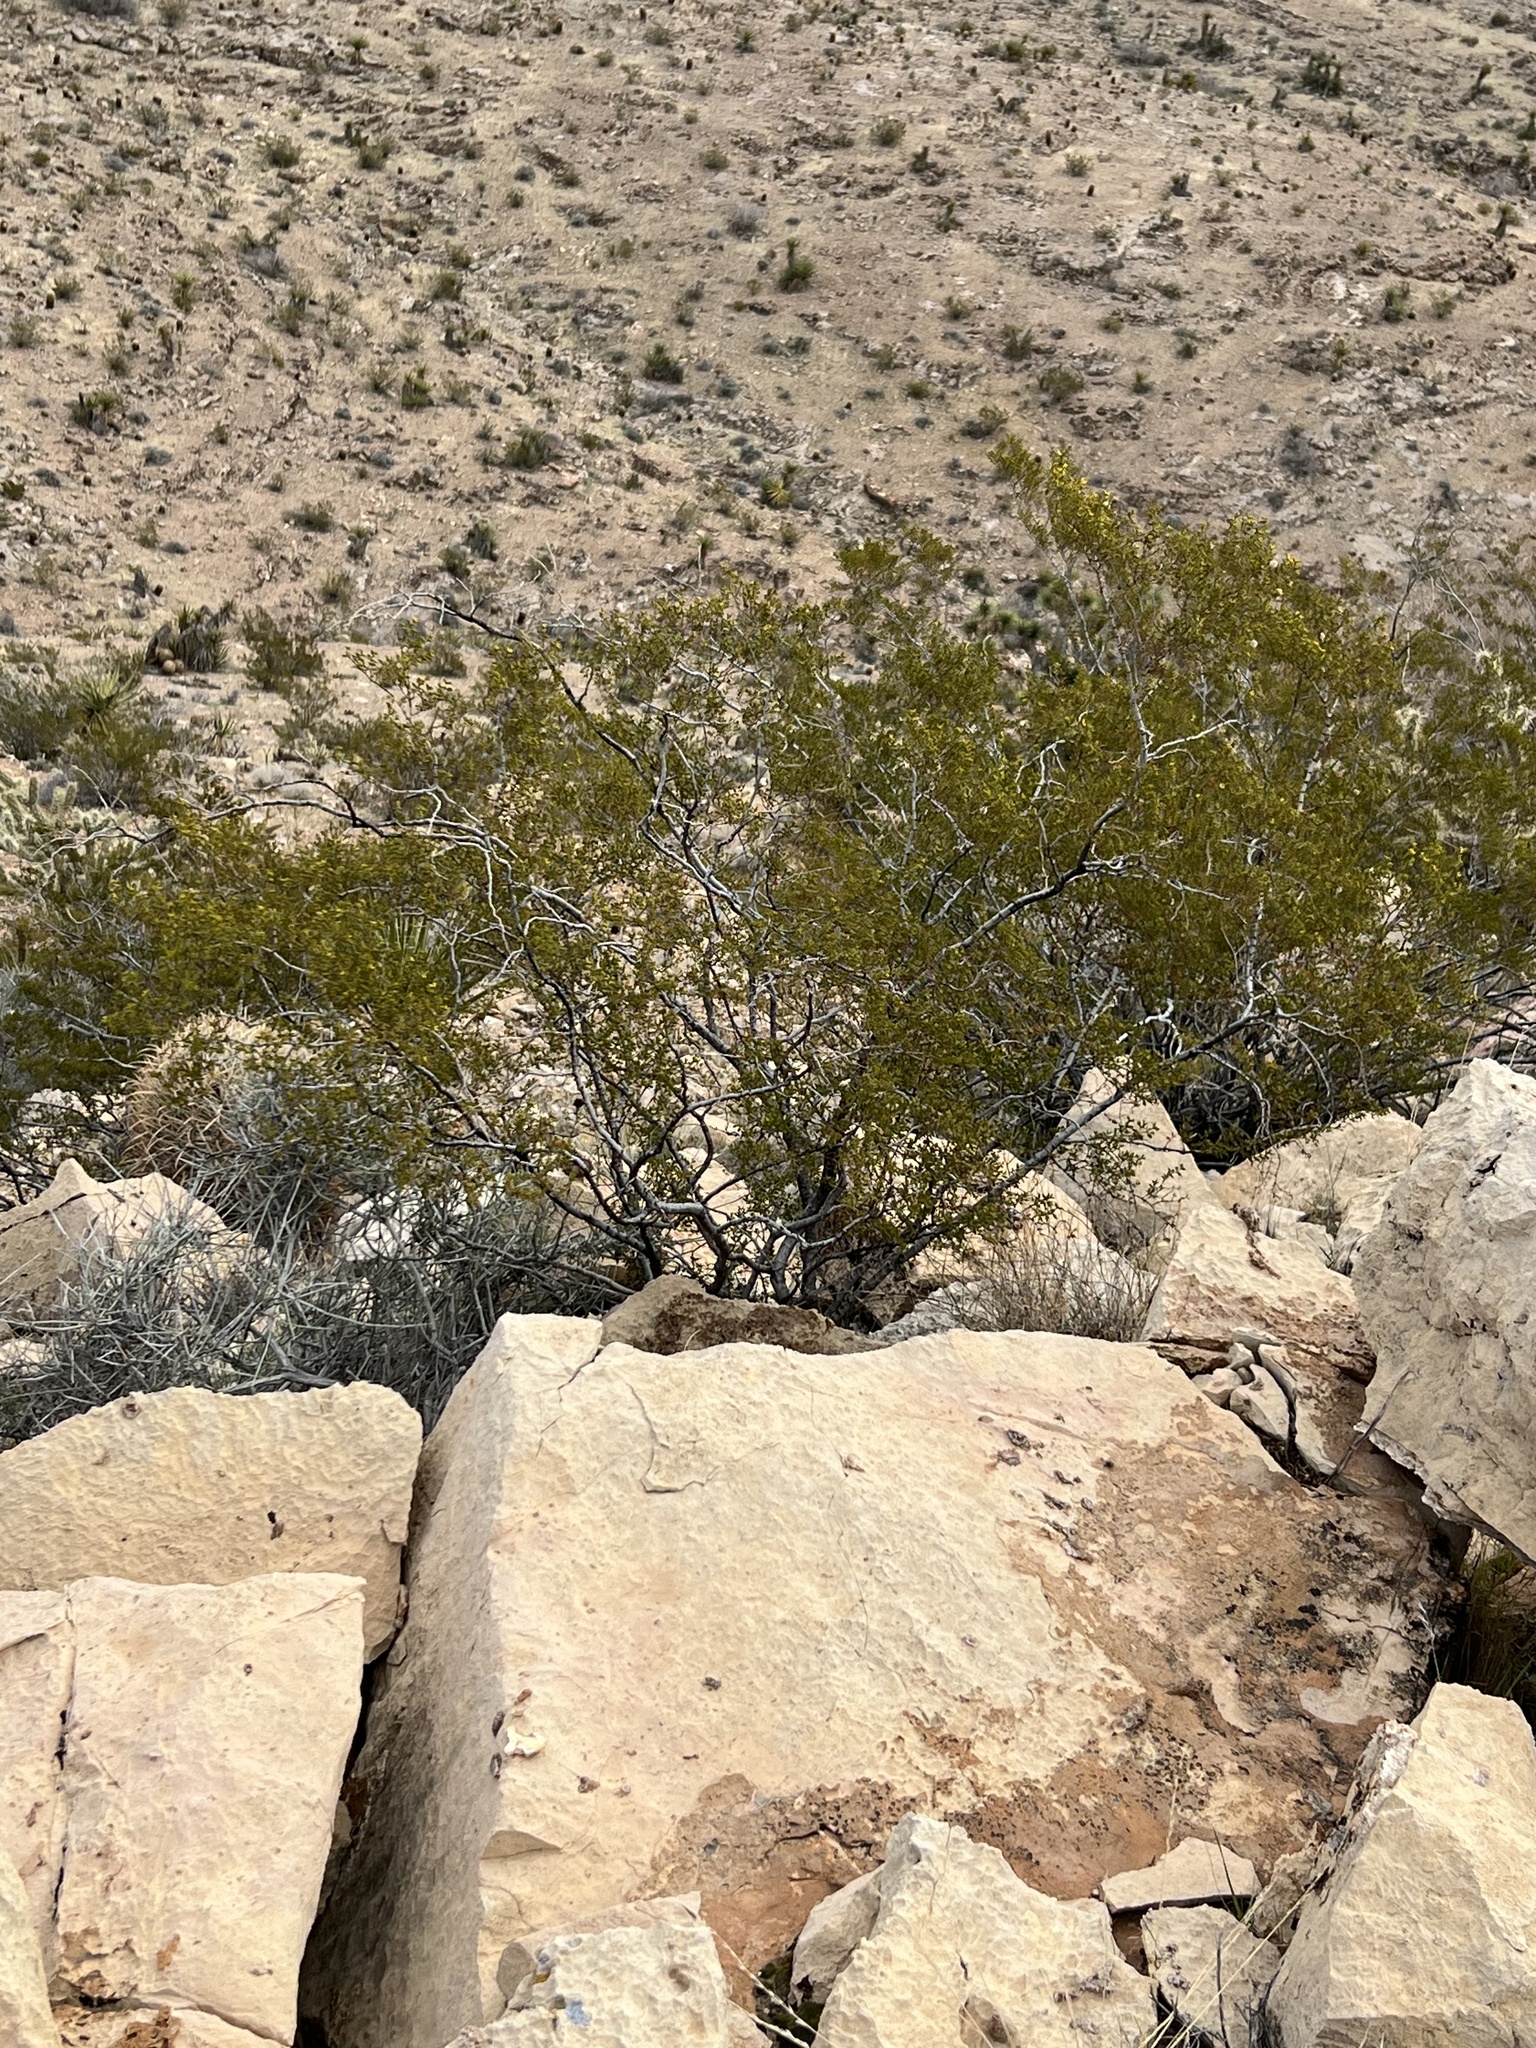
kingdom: Plantae
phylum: Tracheophyta
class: Magnoliopsida
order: Zygophyllales
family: Zygophyllaceae
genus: Larrea
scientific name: Larrea tridentata
